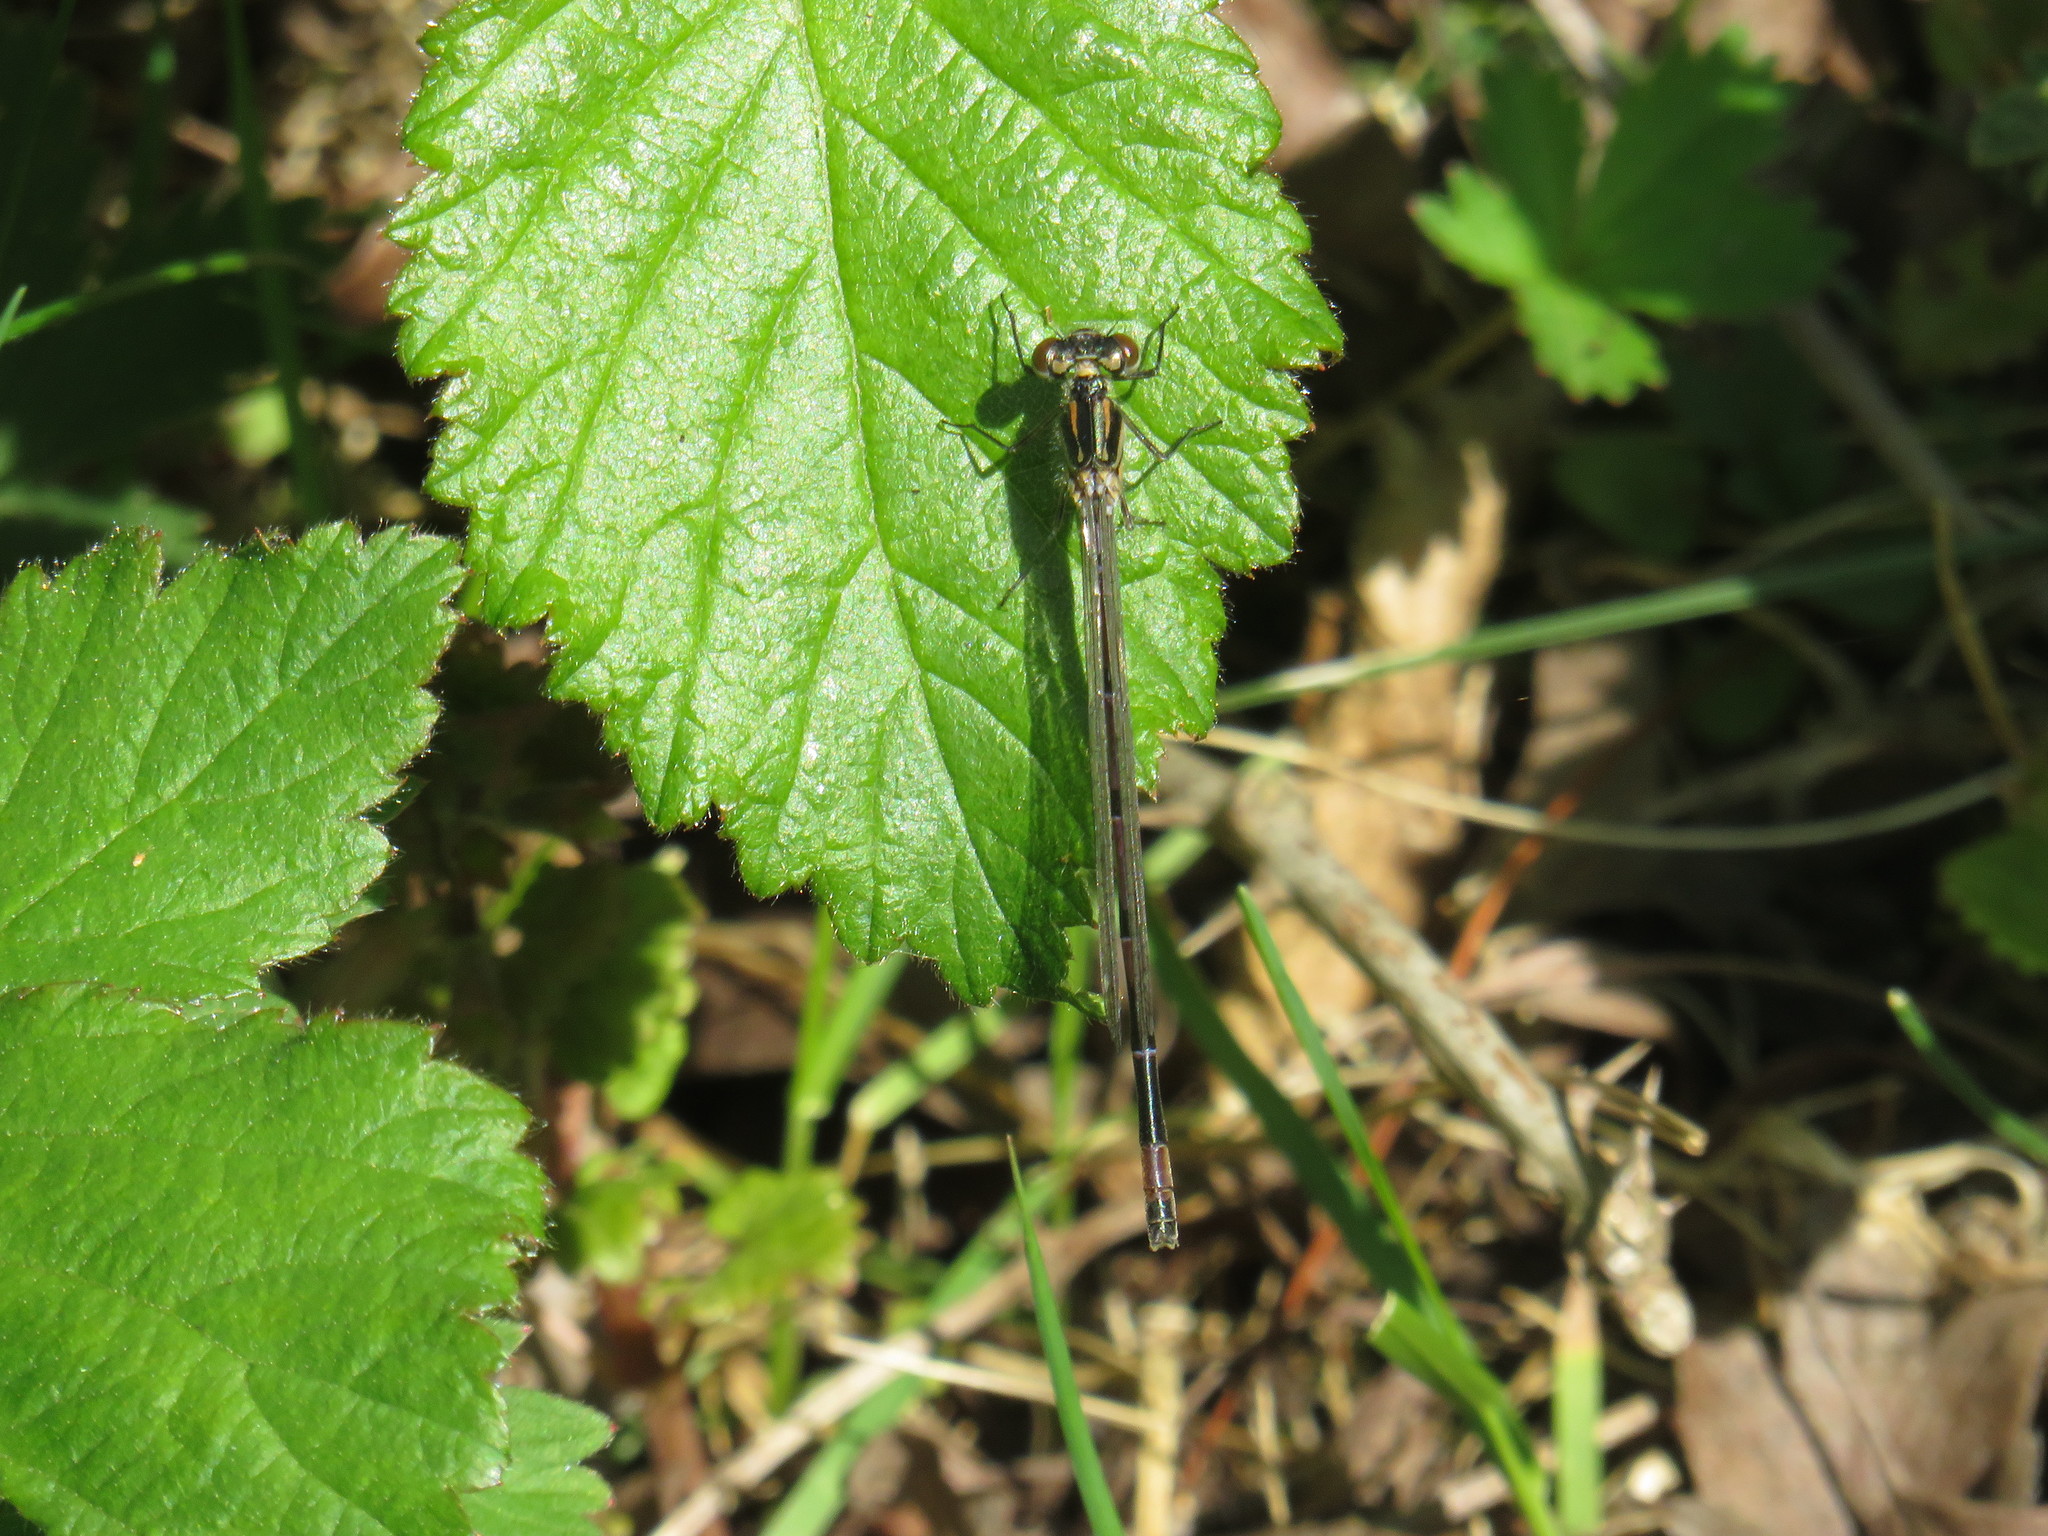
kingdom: Animalia
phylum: Arthropoda
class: Insecta
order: Odonata
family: Coenagrionidae
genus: Coenagrion
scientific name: Coenagrion pulchellum
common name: Variable bluet
